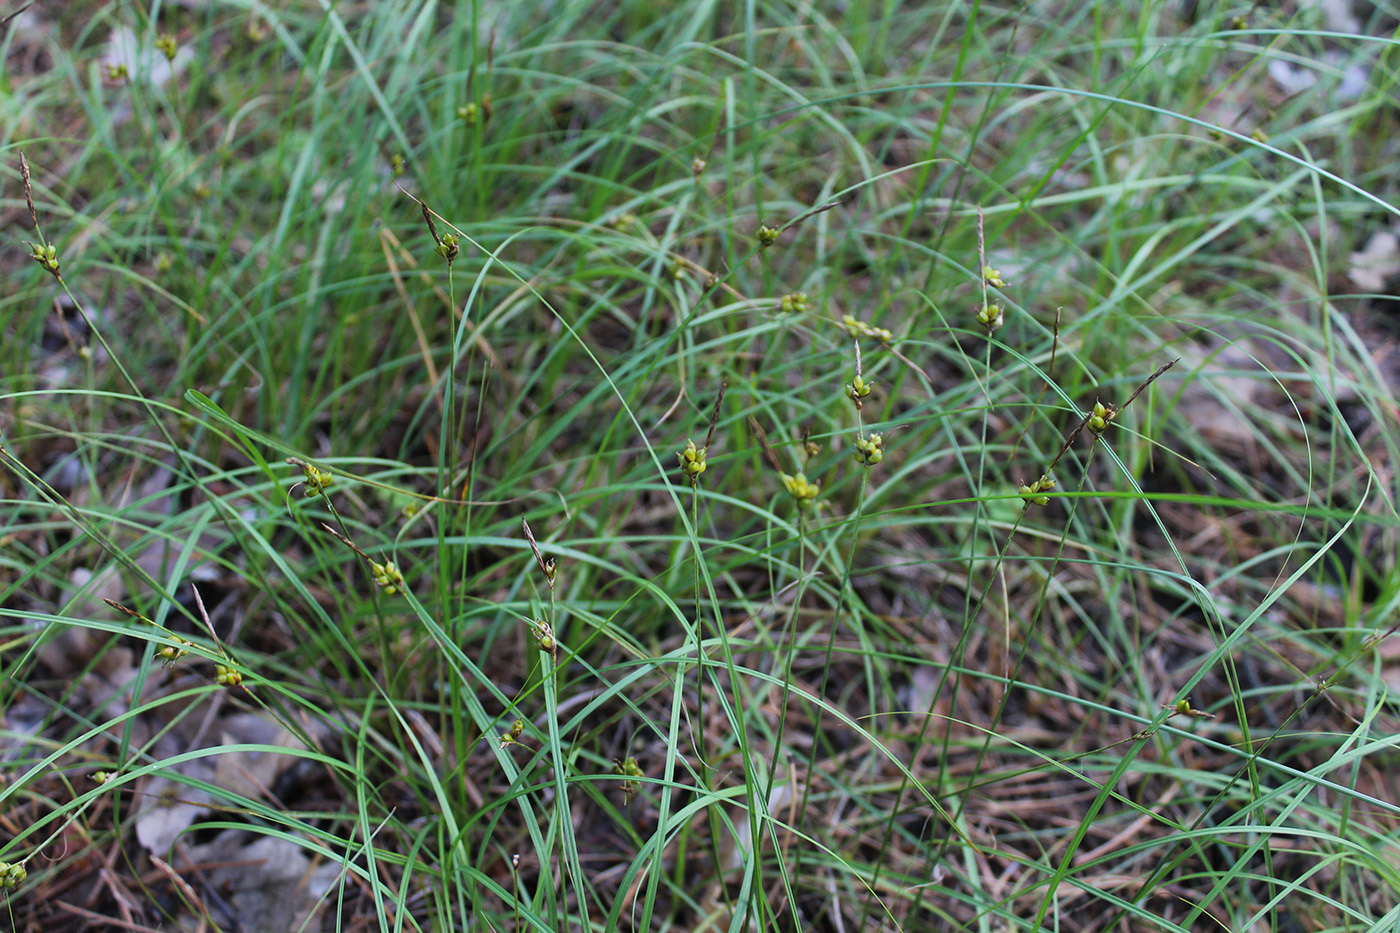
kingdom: Plantae
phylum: Tracheophyta
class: Liliopsida
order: Poales
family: Cyperaceae
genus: Carex
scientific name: Carex supina
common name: Lying-back sedge
